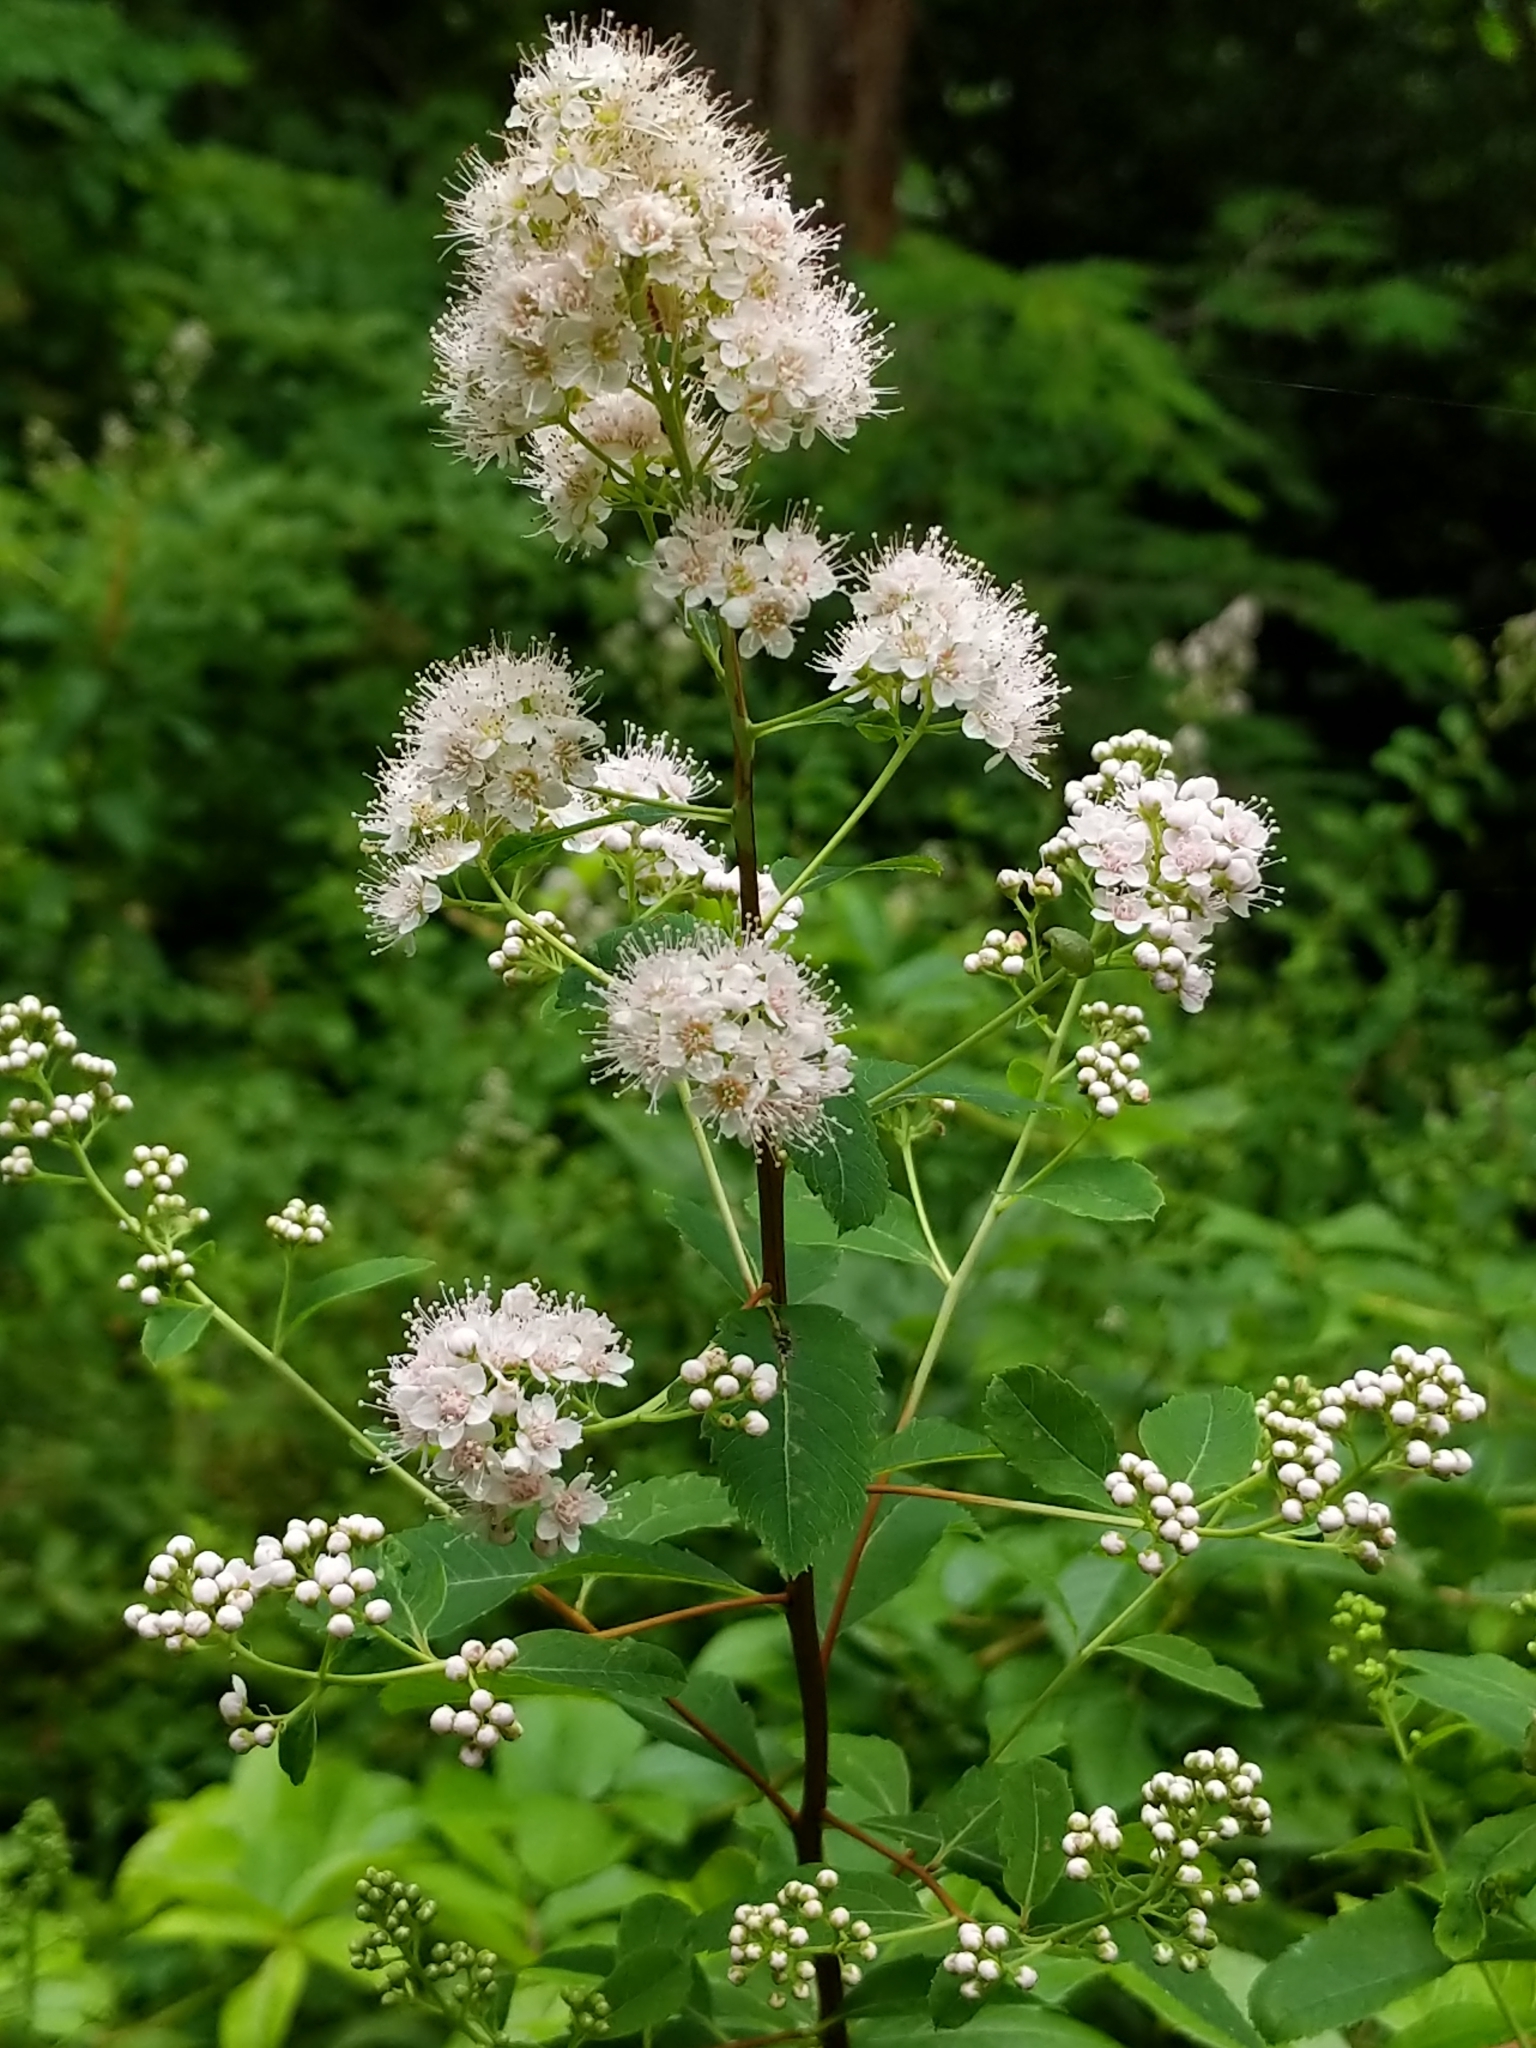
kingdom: Plantae
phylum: Tracheophyta
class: Magnoliopsida
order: Rosales
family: Rosaceae
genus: Spiraea
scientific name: Spiraea alba
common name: Pale bridewort
